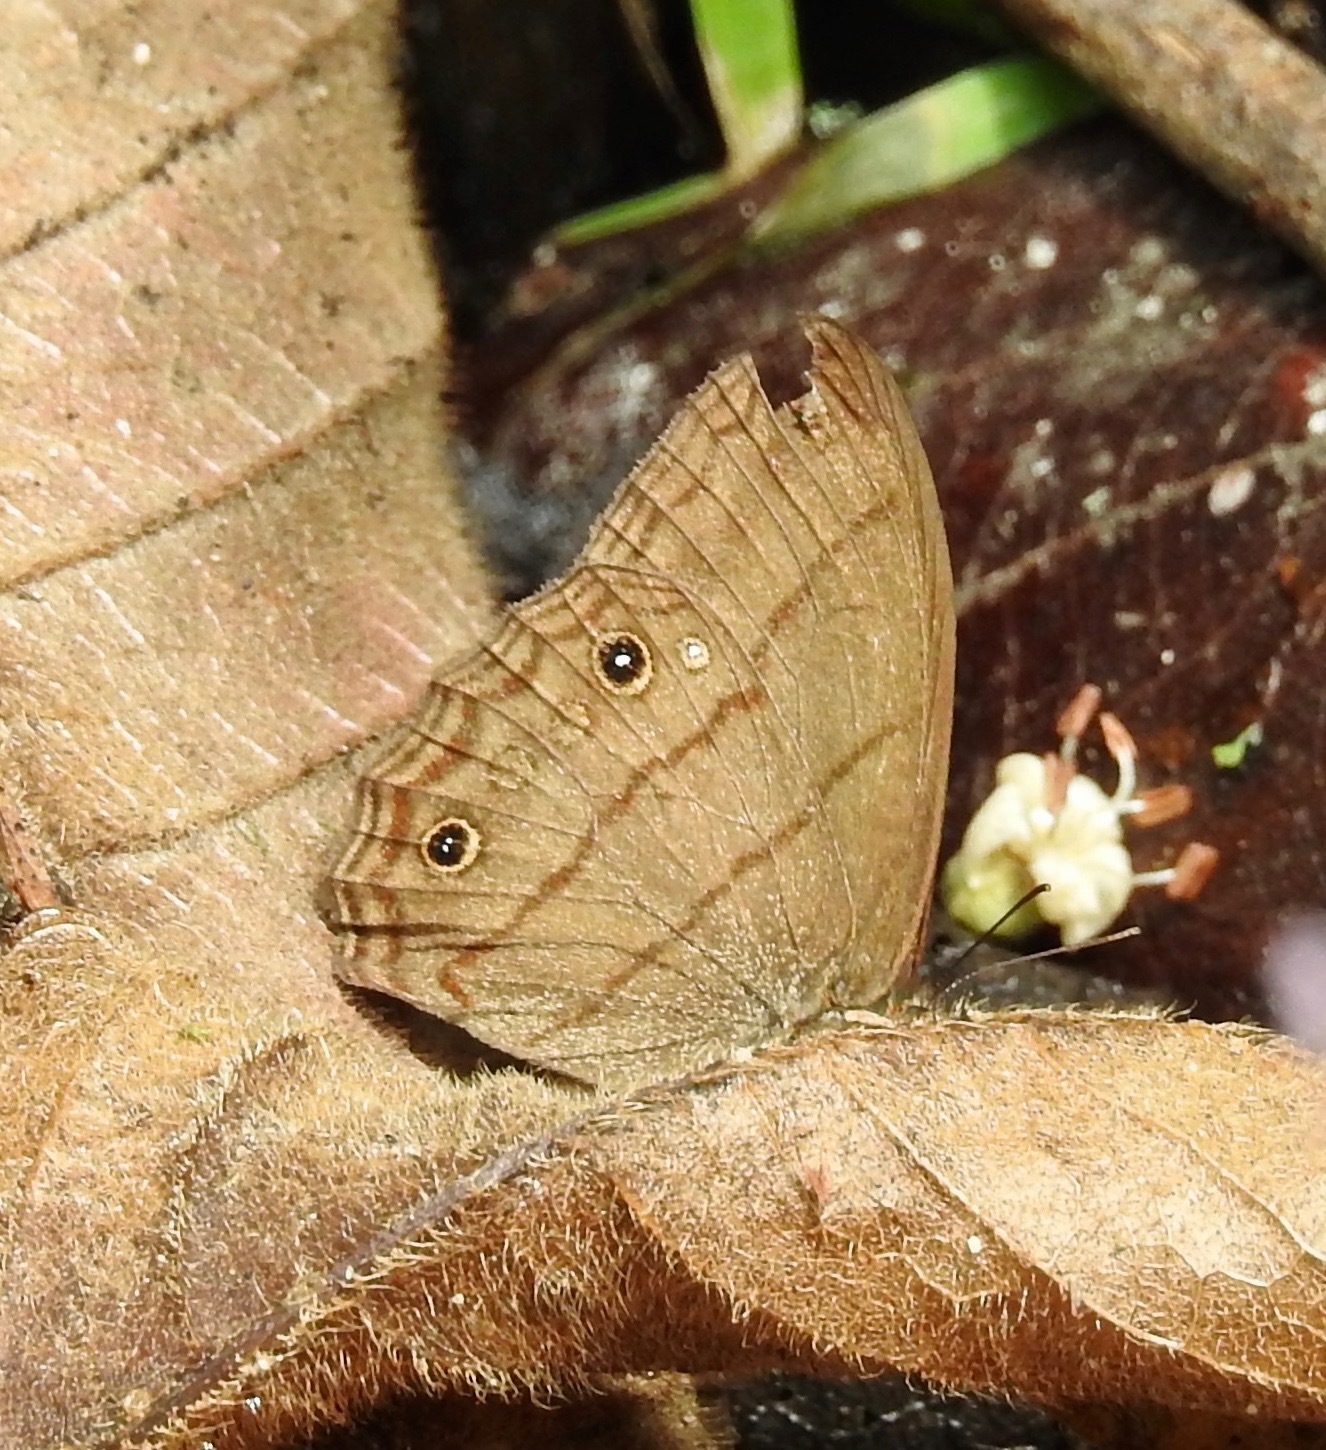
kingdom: Animalia
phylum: Arthropoda
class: Insecta
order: Lepidoptera
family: Nymphalidae
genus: Malaveria
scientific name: Malaveria
